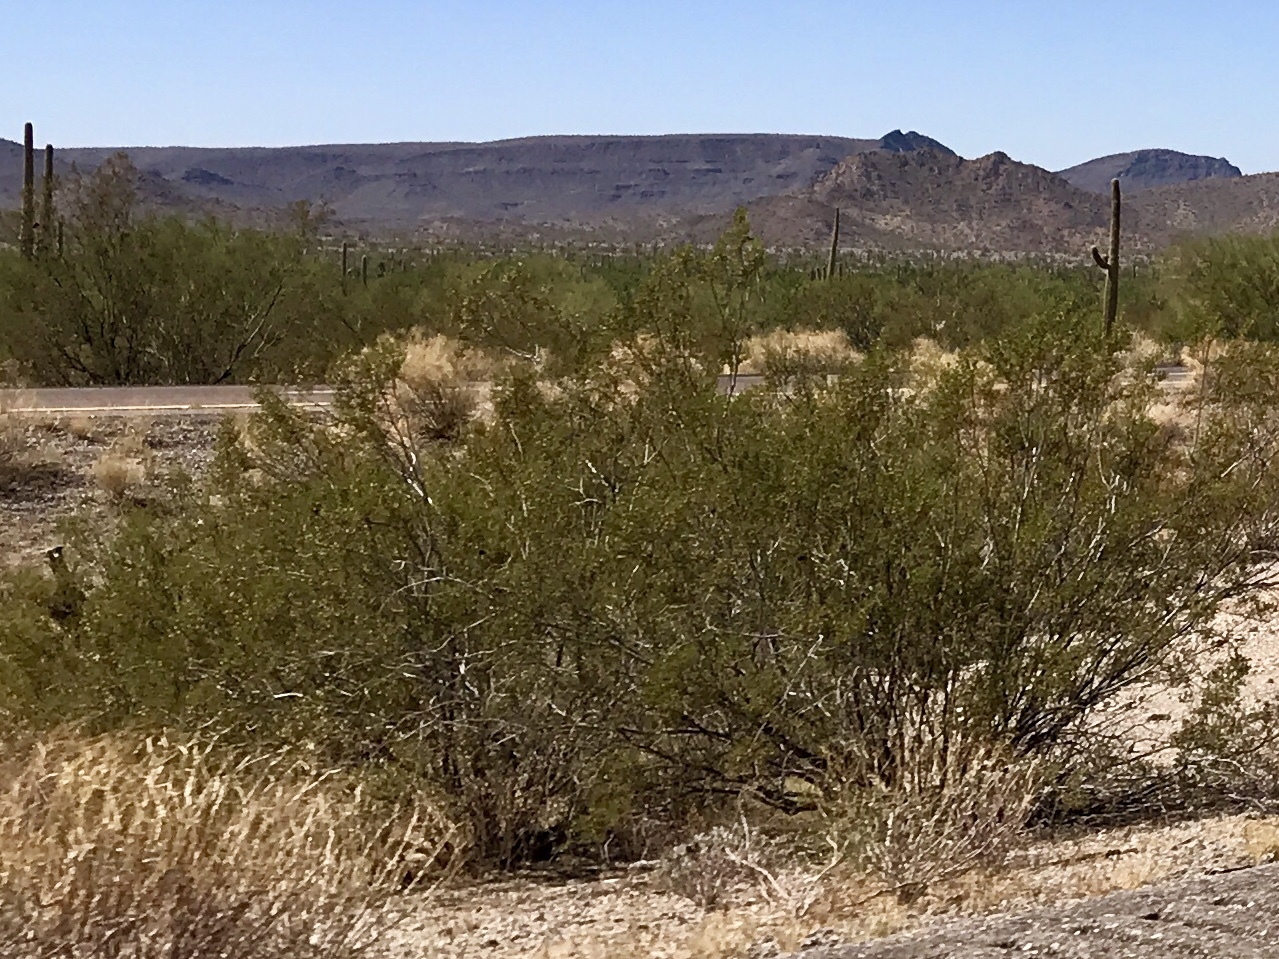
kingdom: Plantae
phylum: Tracheophyta
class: Magnoliopsida
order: Zygophyllales
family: Zygophyllaceae
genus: Larrea
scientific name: Larrea tridentata
